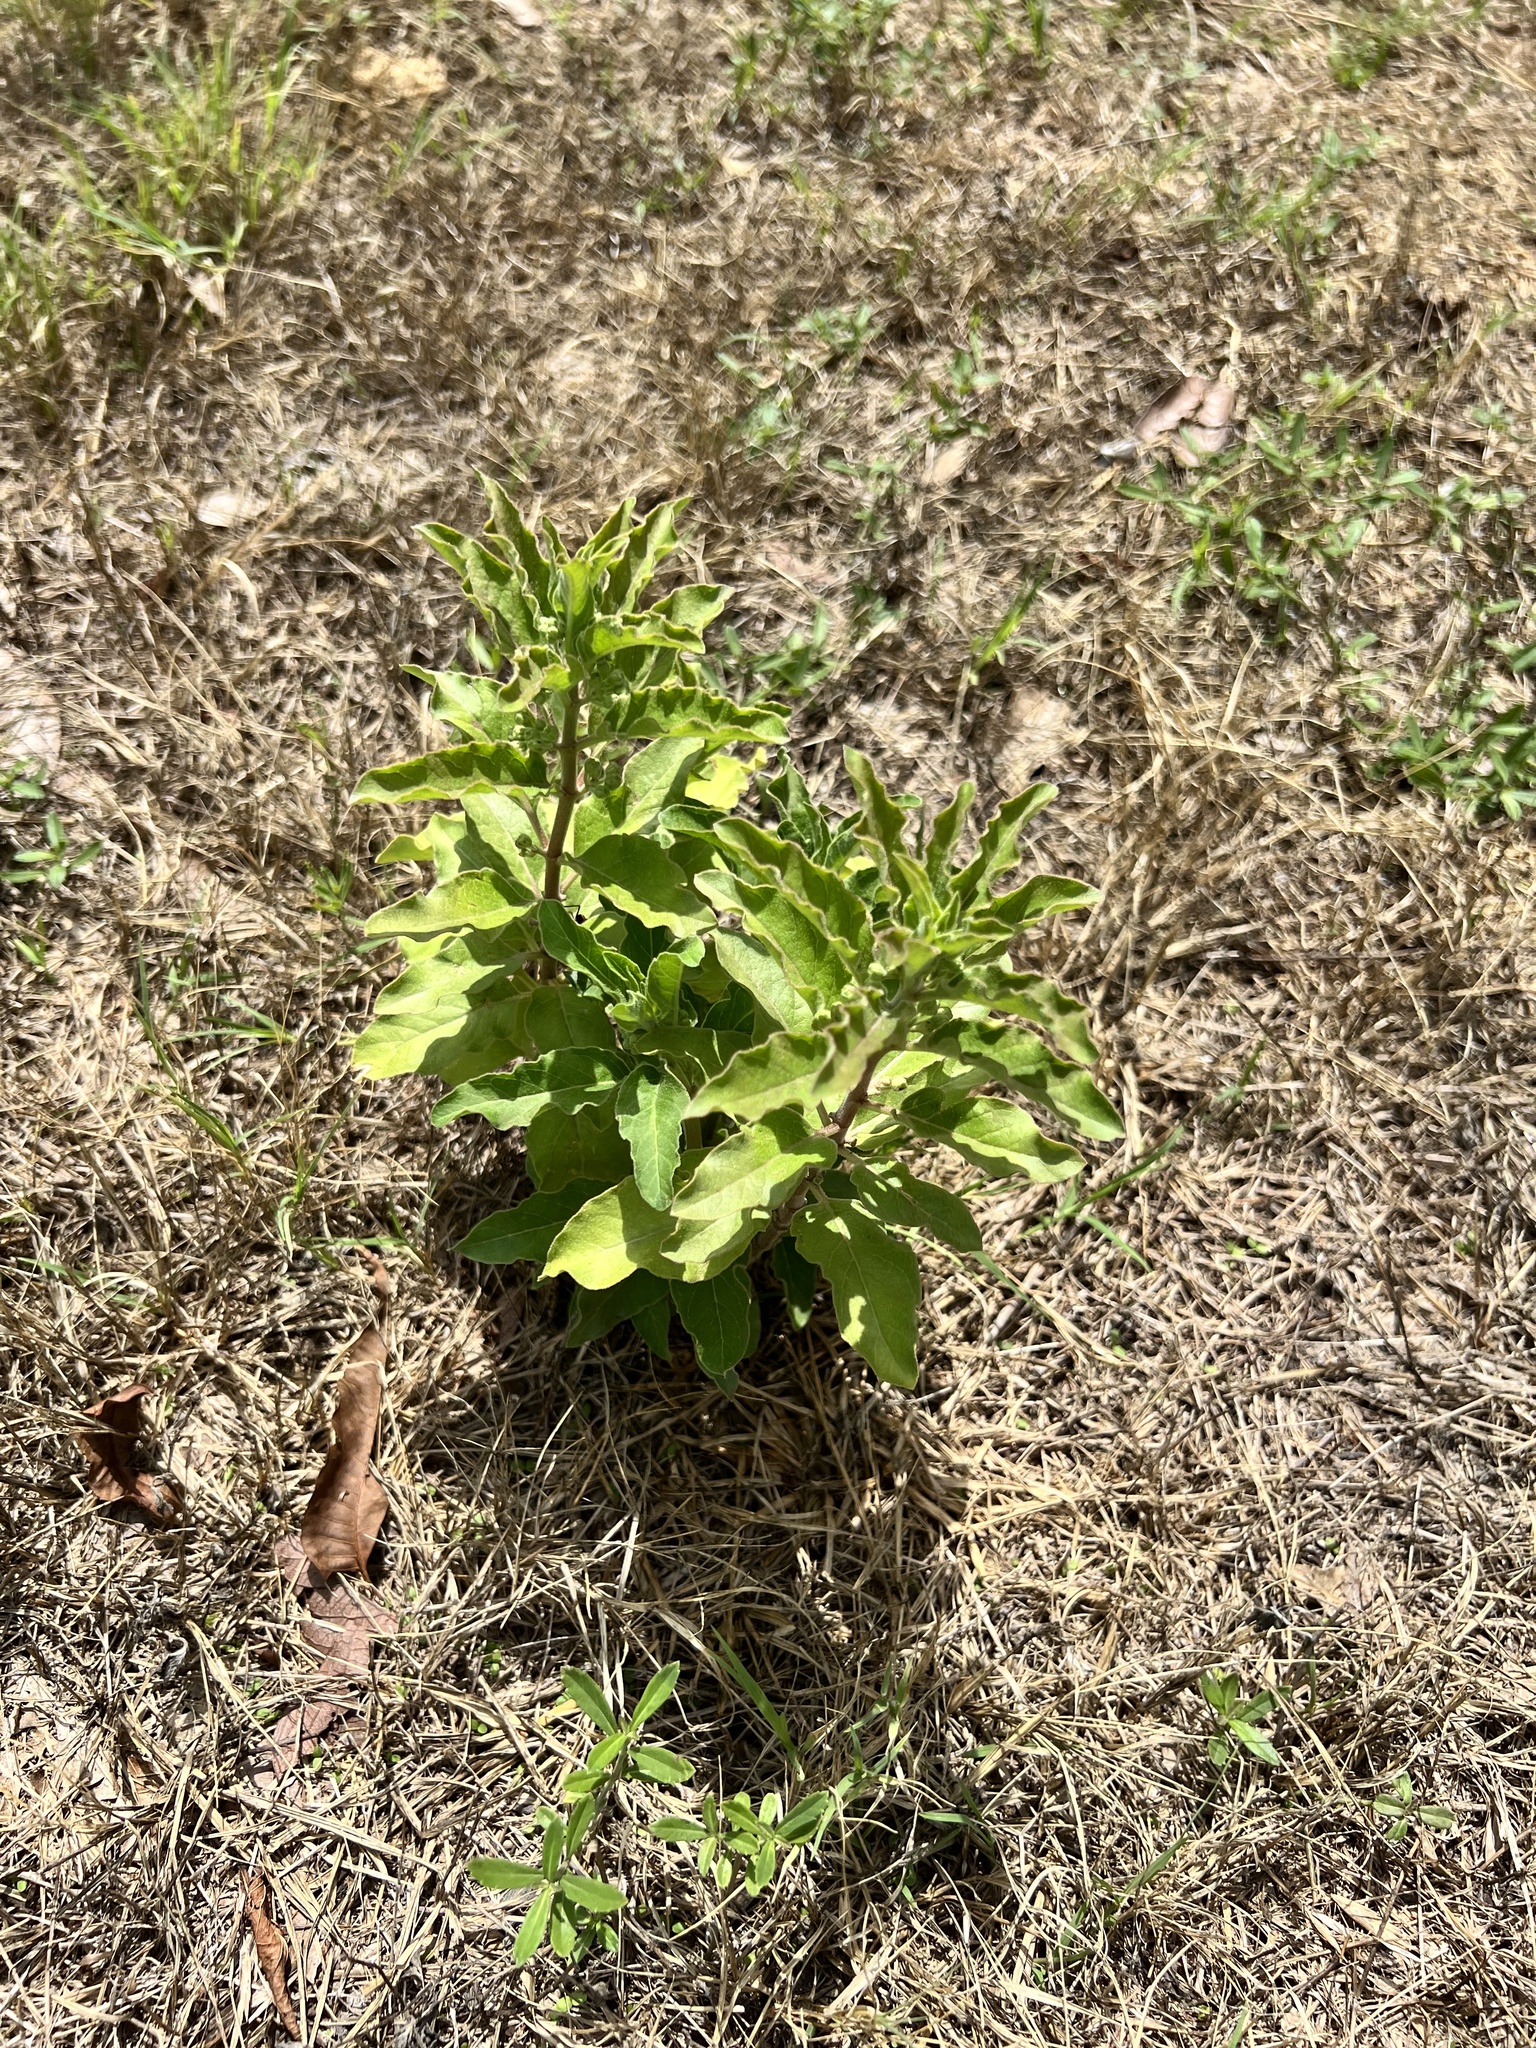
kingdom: Plantae
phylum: Tracheophyta
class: Magnoliopsida
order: Gentianales
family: Apocynaceae
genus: Asclepias
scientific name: Asclepias oenotheroides
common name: Zizotes milkweed
